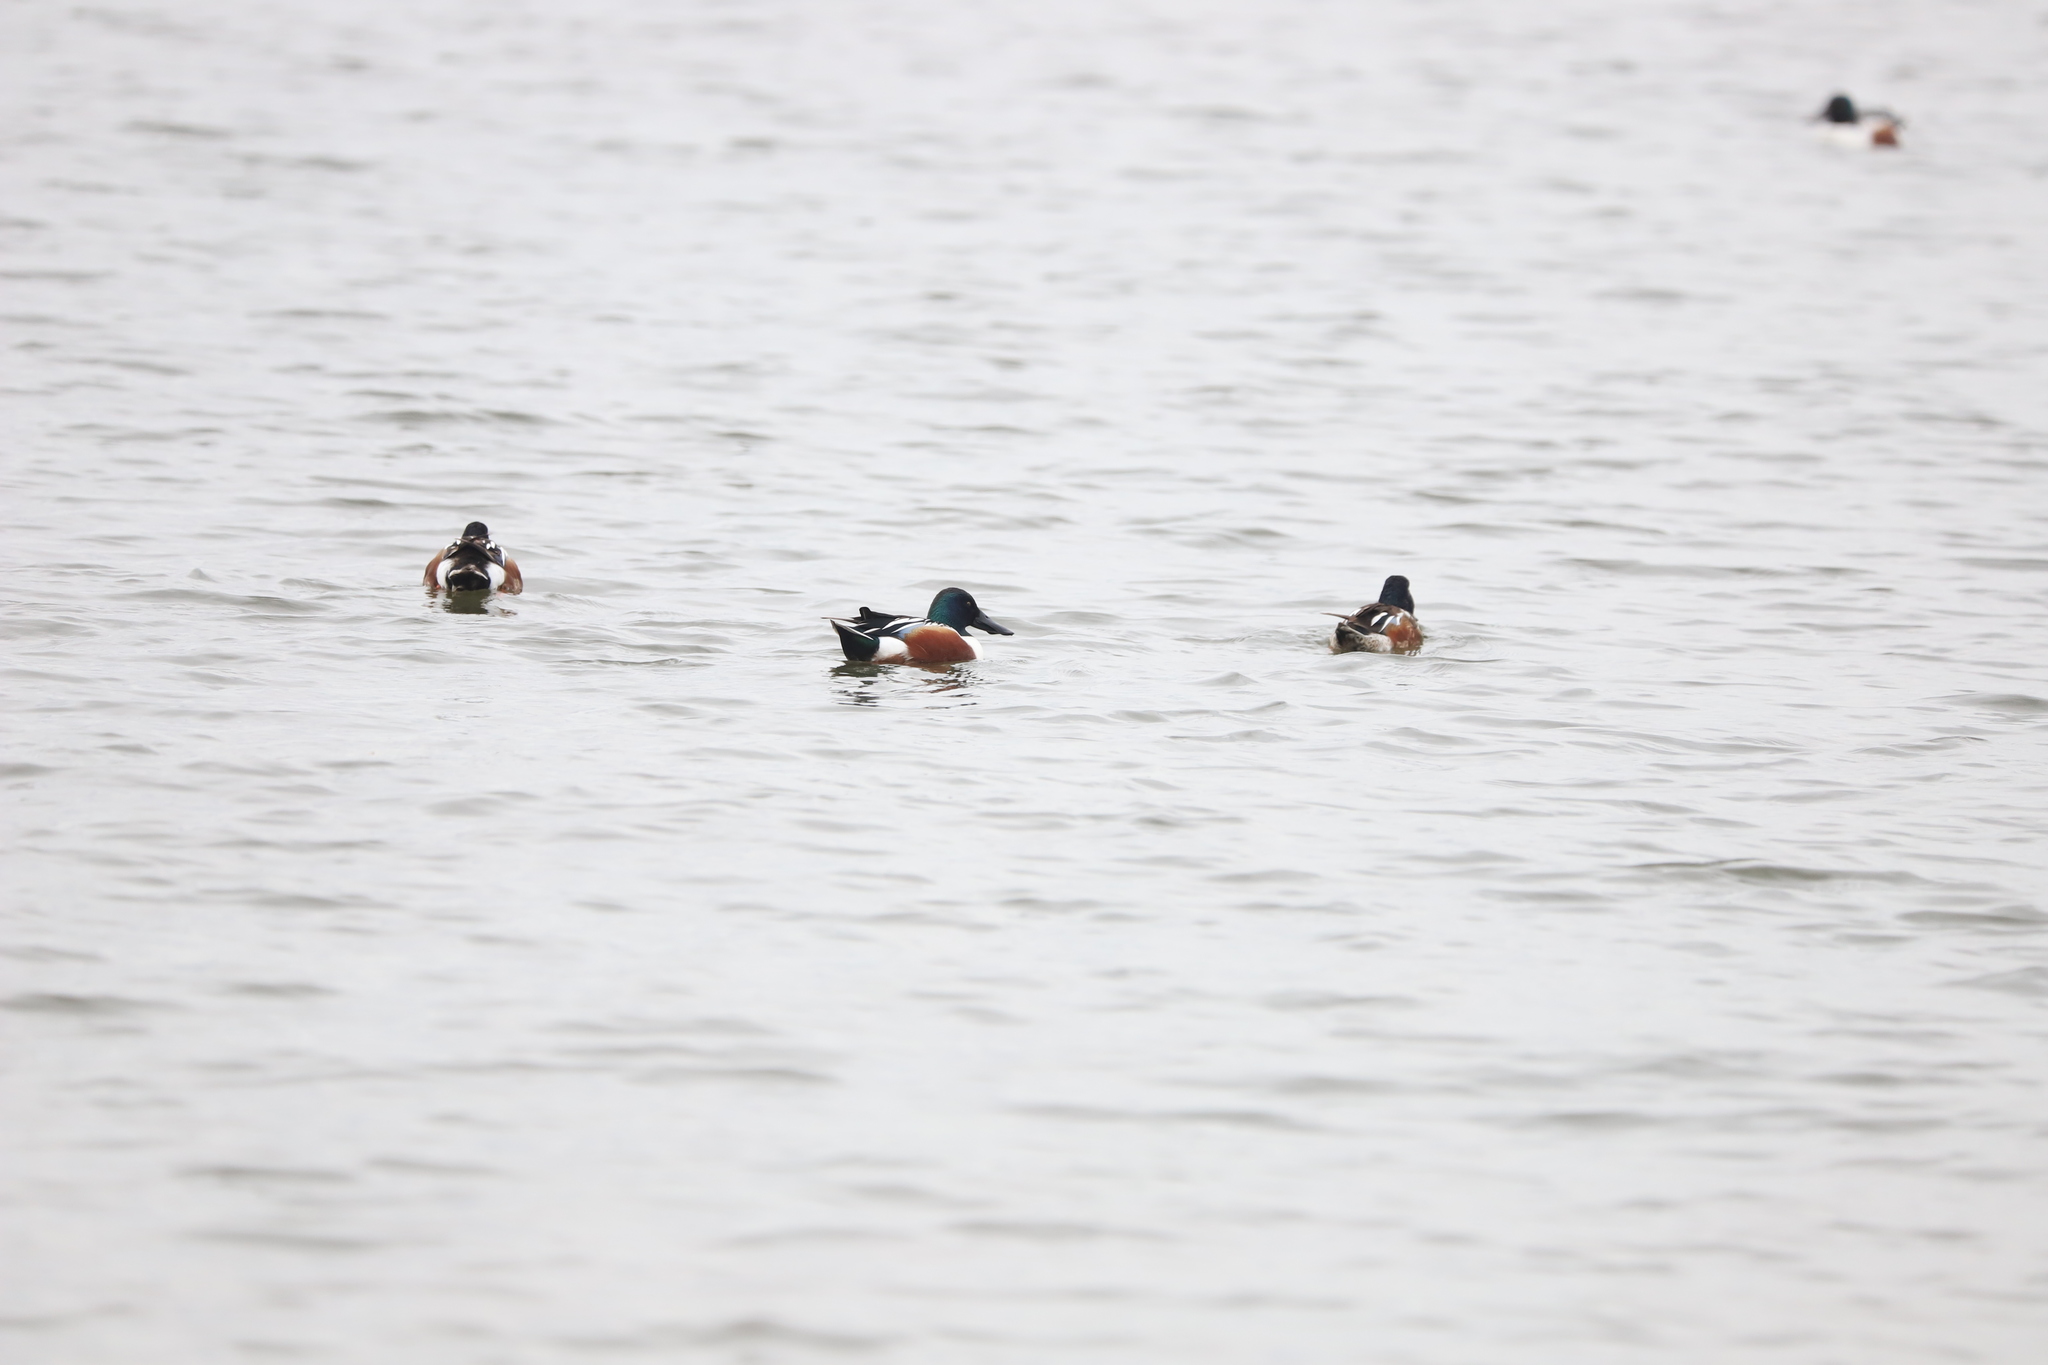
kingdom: Animalia
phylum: Chordata
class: Aves
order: Anseriformes
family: Anatidae
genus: Spatula
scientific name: Spatula clypeata
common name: Northern shoveler
